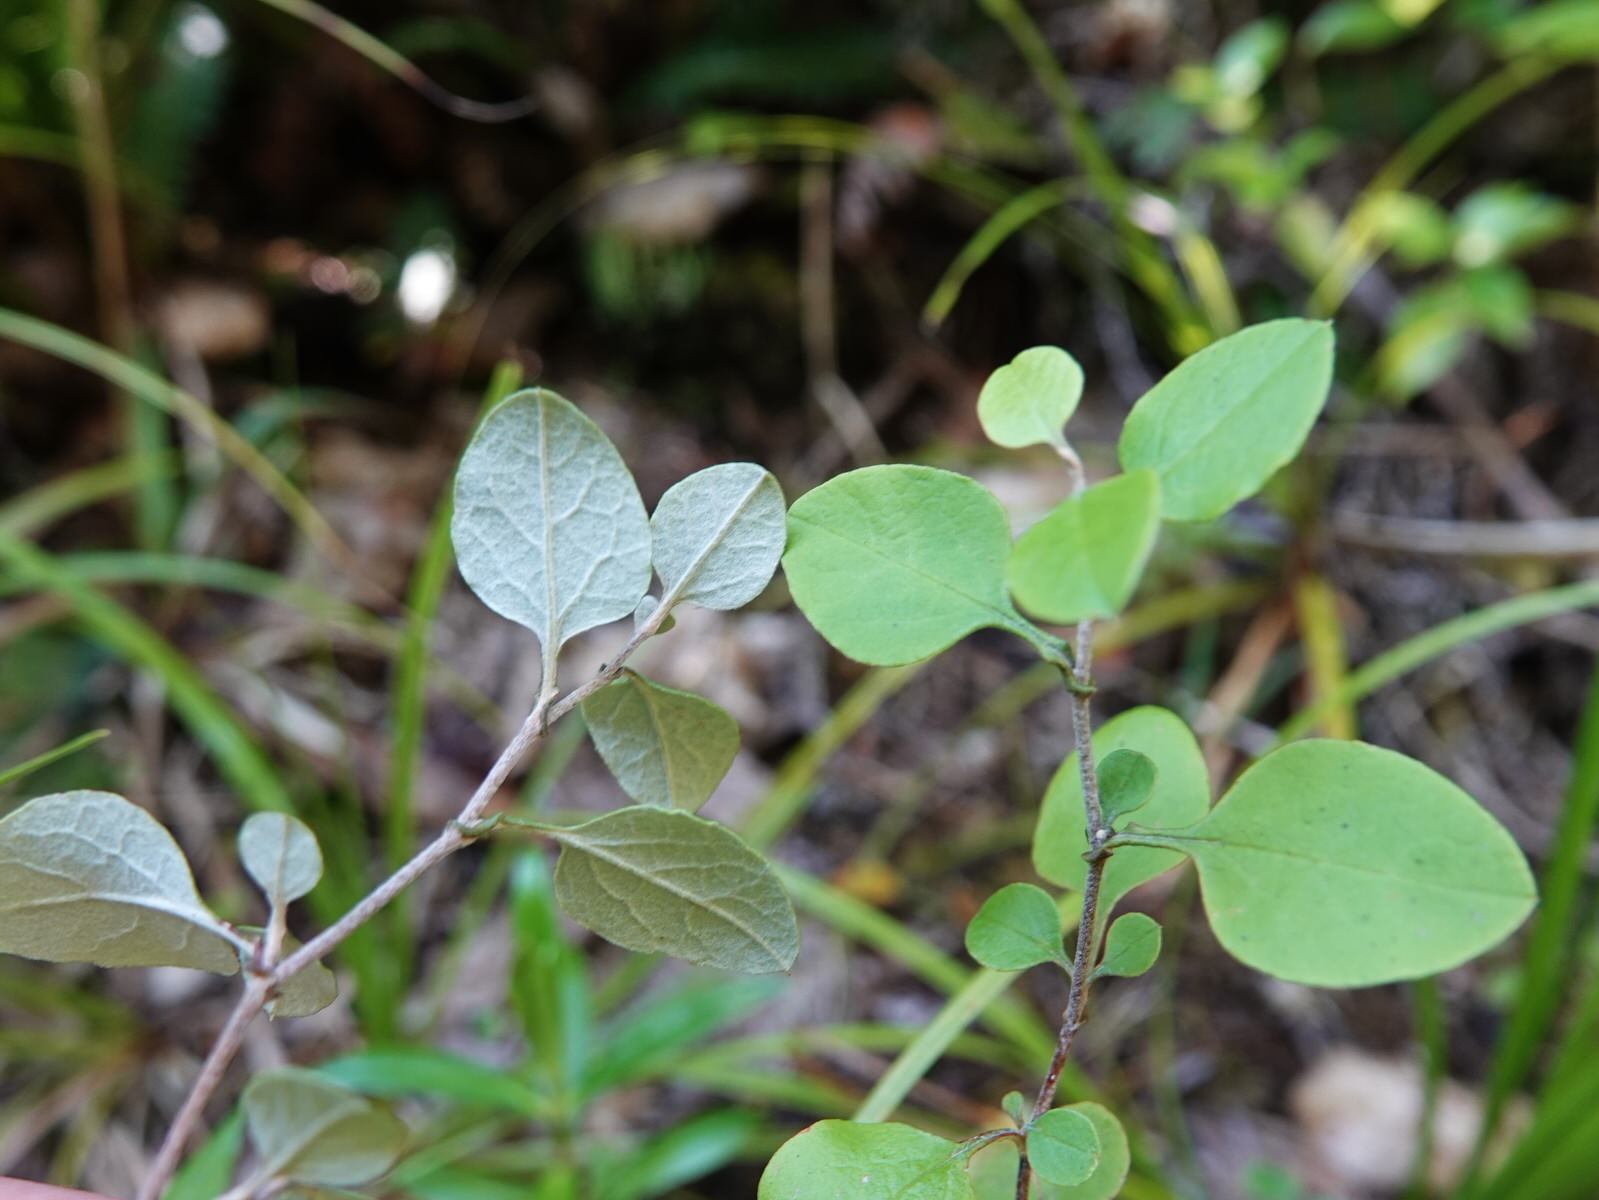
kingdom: Plantae
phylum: Tracheophyta
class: Magnoliopsida
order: Asterales
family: Asteraceae
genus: Ozothamnus
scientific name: Ozothamnus glomeratus
